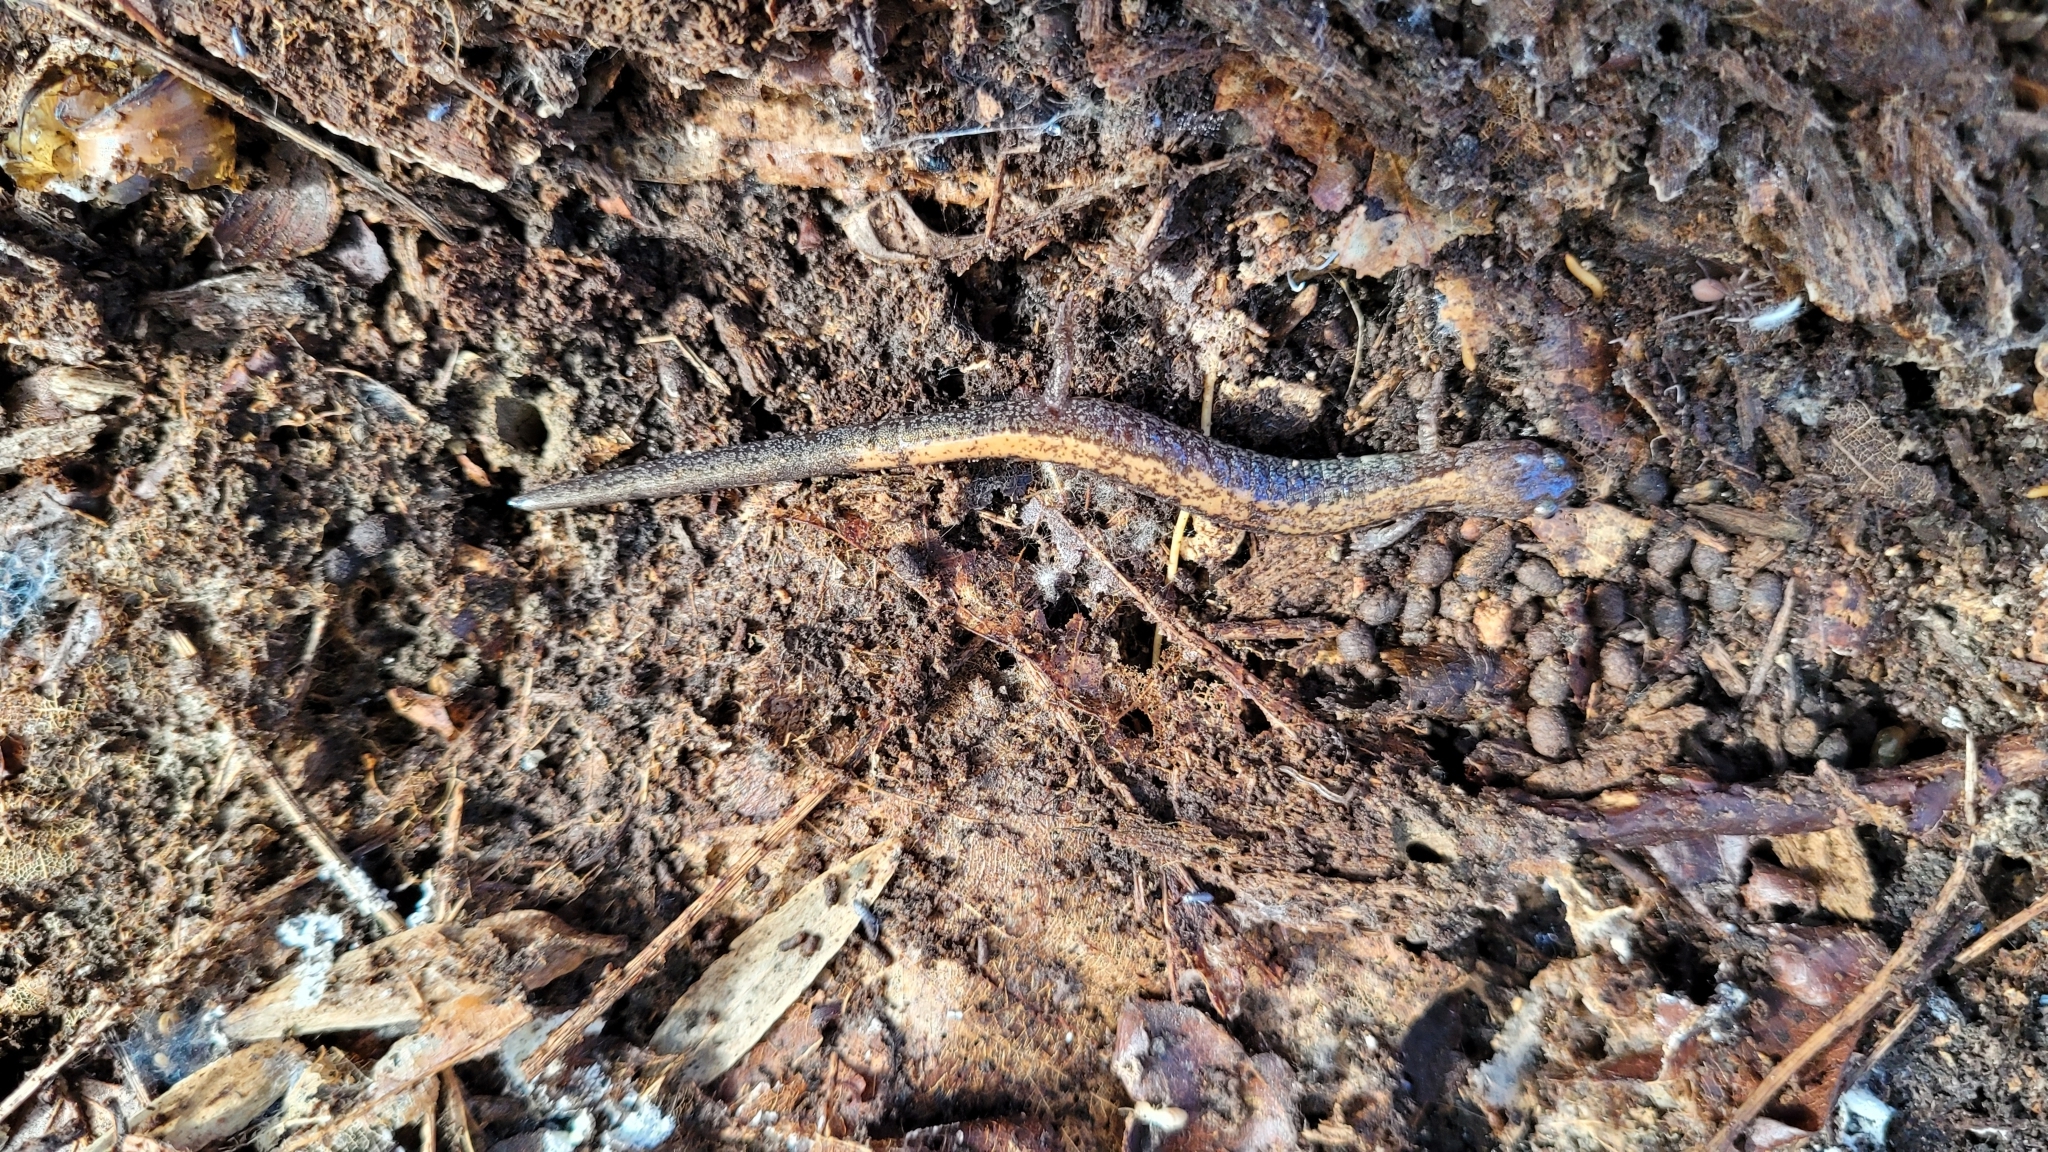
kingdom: Animalia
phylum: Chordata
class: Amphibia
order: Caudata
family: Plethodontidae
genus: Plethodon
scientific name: Plethodon cinereus
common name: Redback salamander
